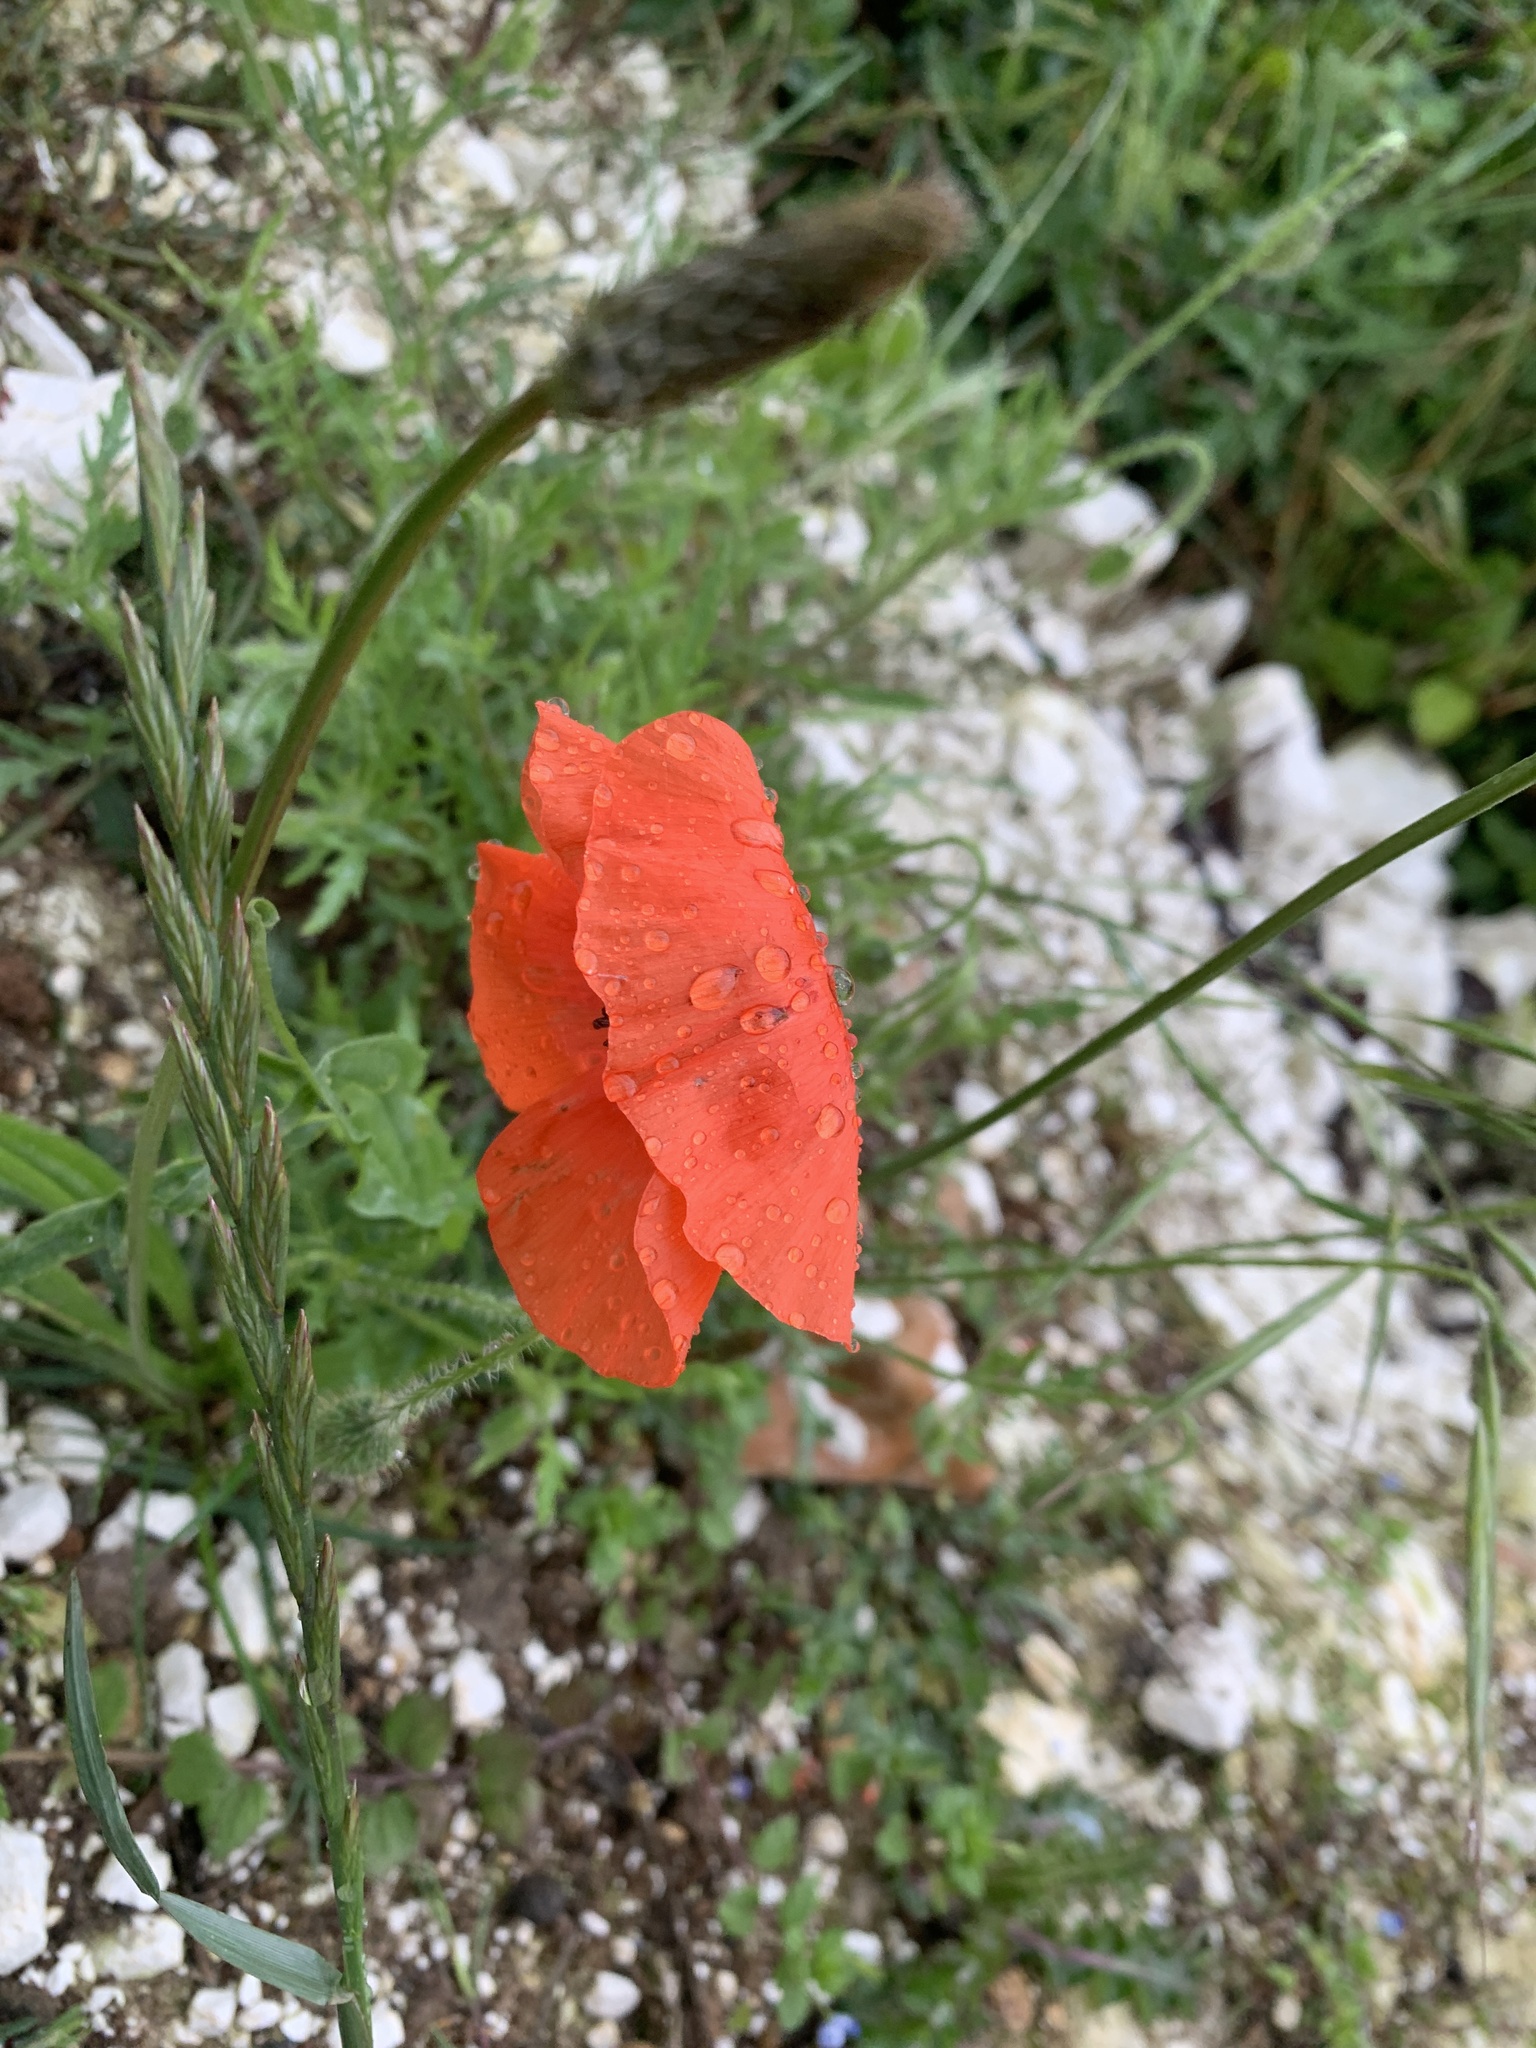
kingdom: Plantae
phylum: Tracheophyta
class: Magnoliopsida
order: Ranunculales
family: Papaveraceae
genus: Papaver
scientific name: Papaver rhoeas
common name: Corn poppy
